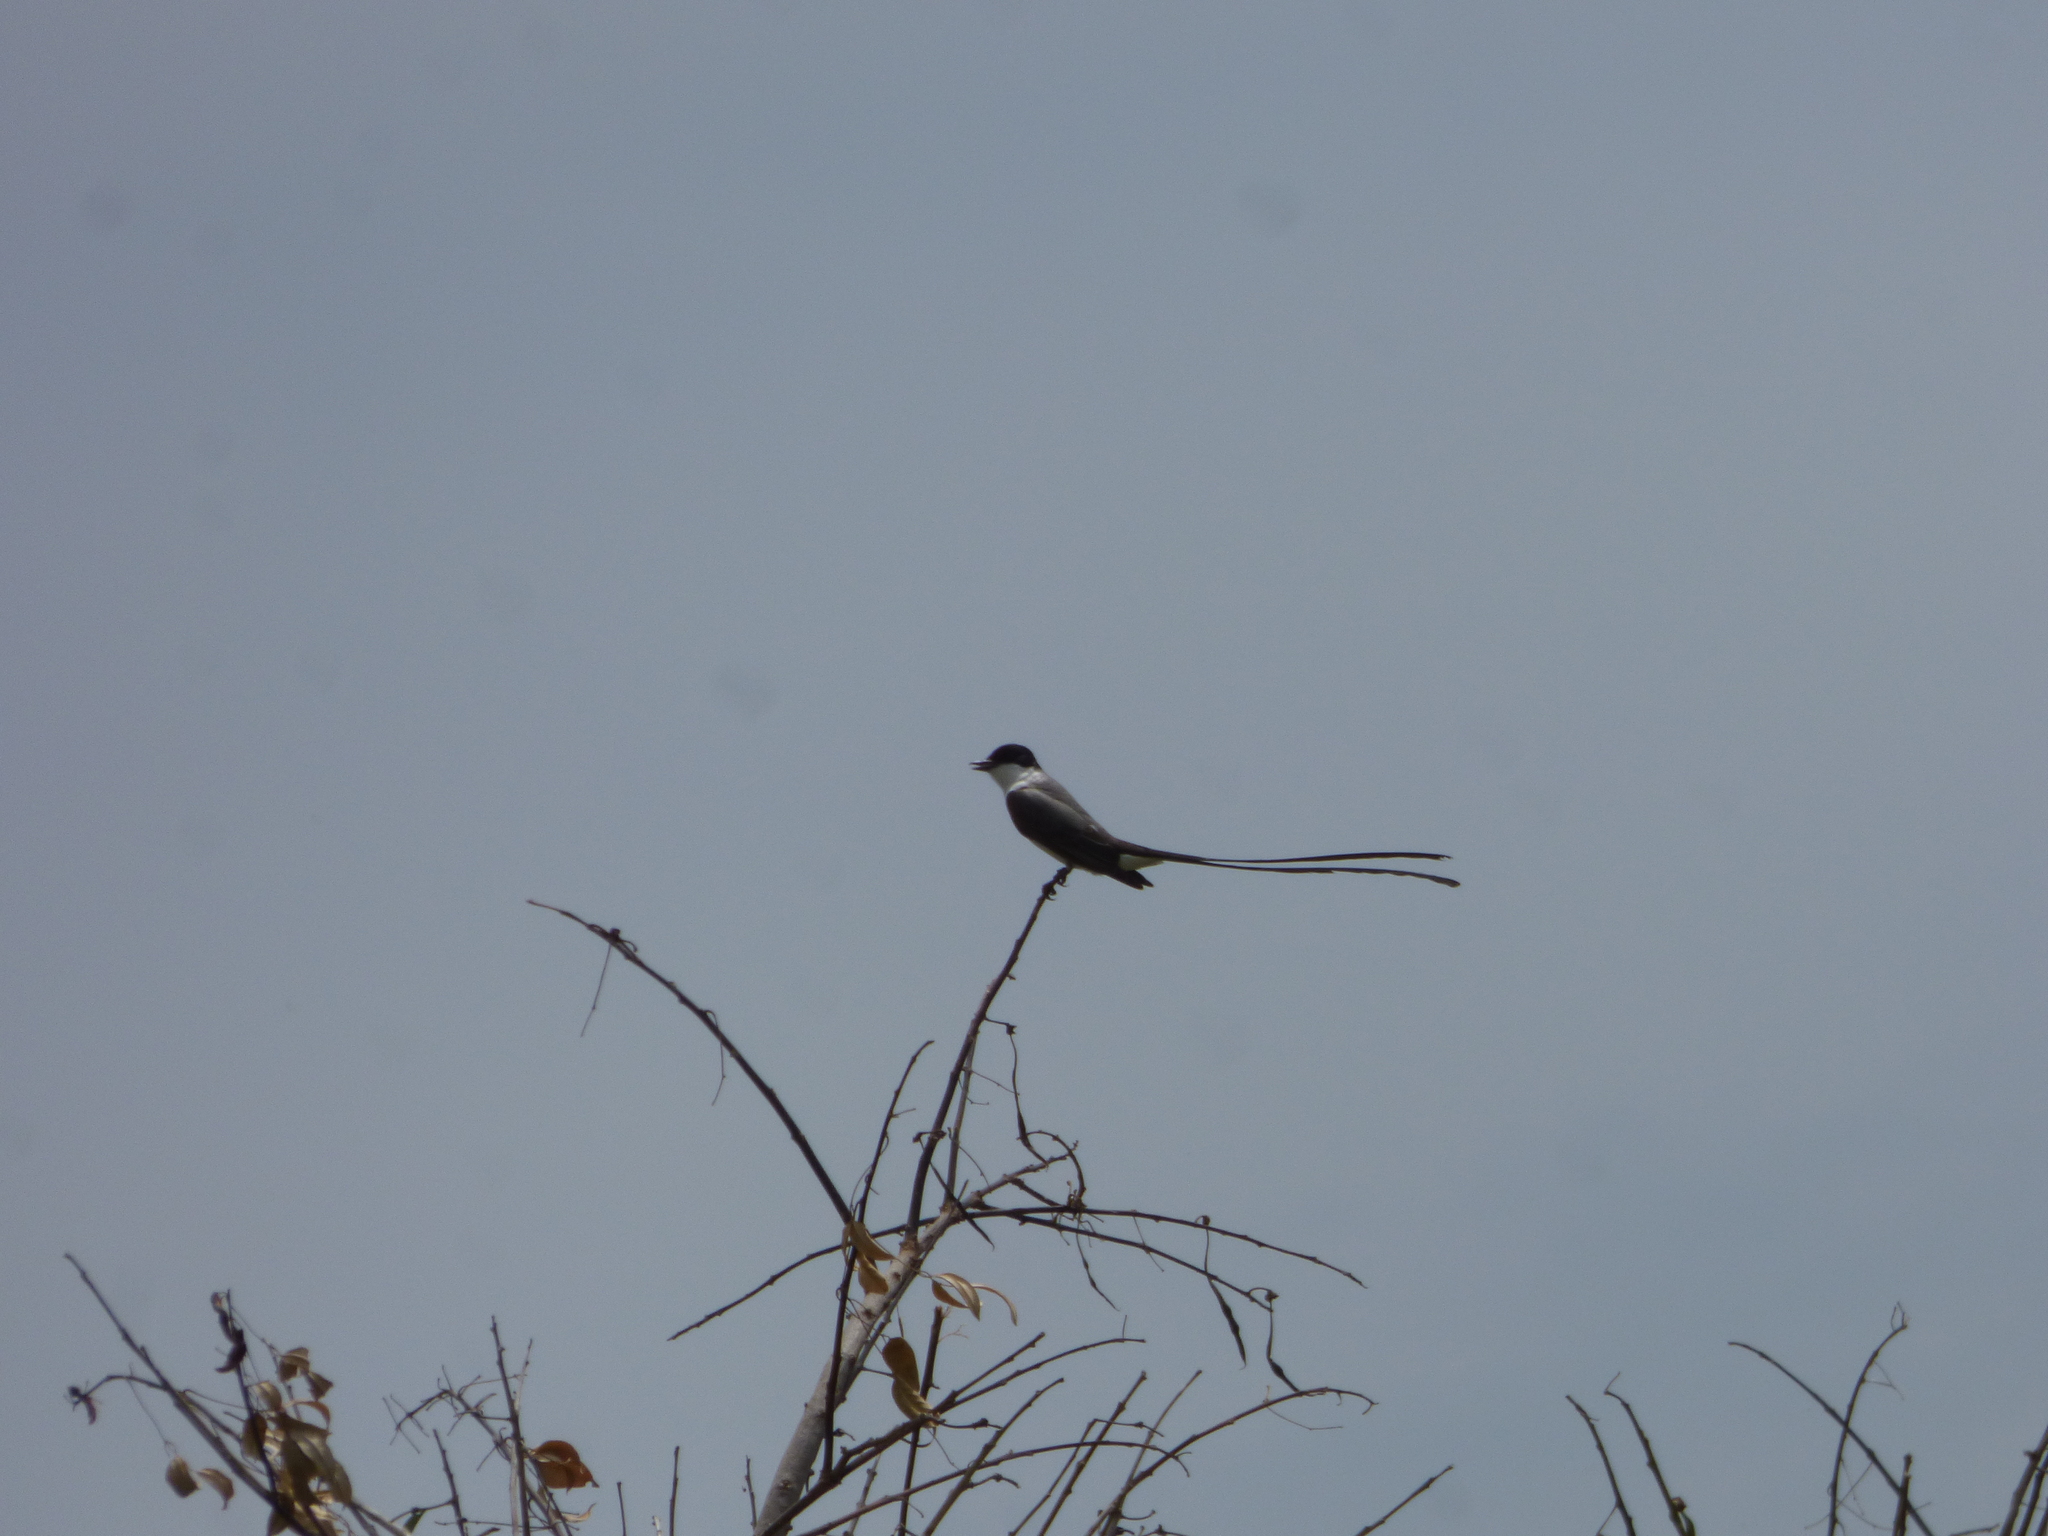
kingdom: Animalia
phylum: Chordata
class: Aves
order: Passeriformes
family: Tyrannidae
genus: Tyrannus
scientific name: Tyrannus savana
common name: Fork-tailed flycatcher
